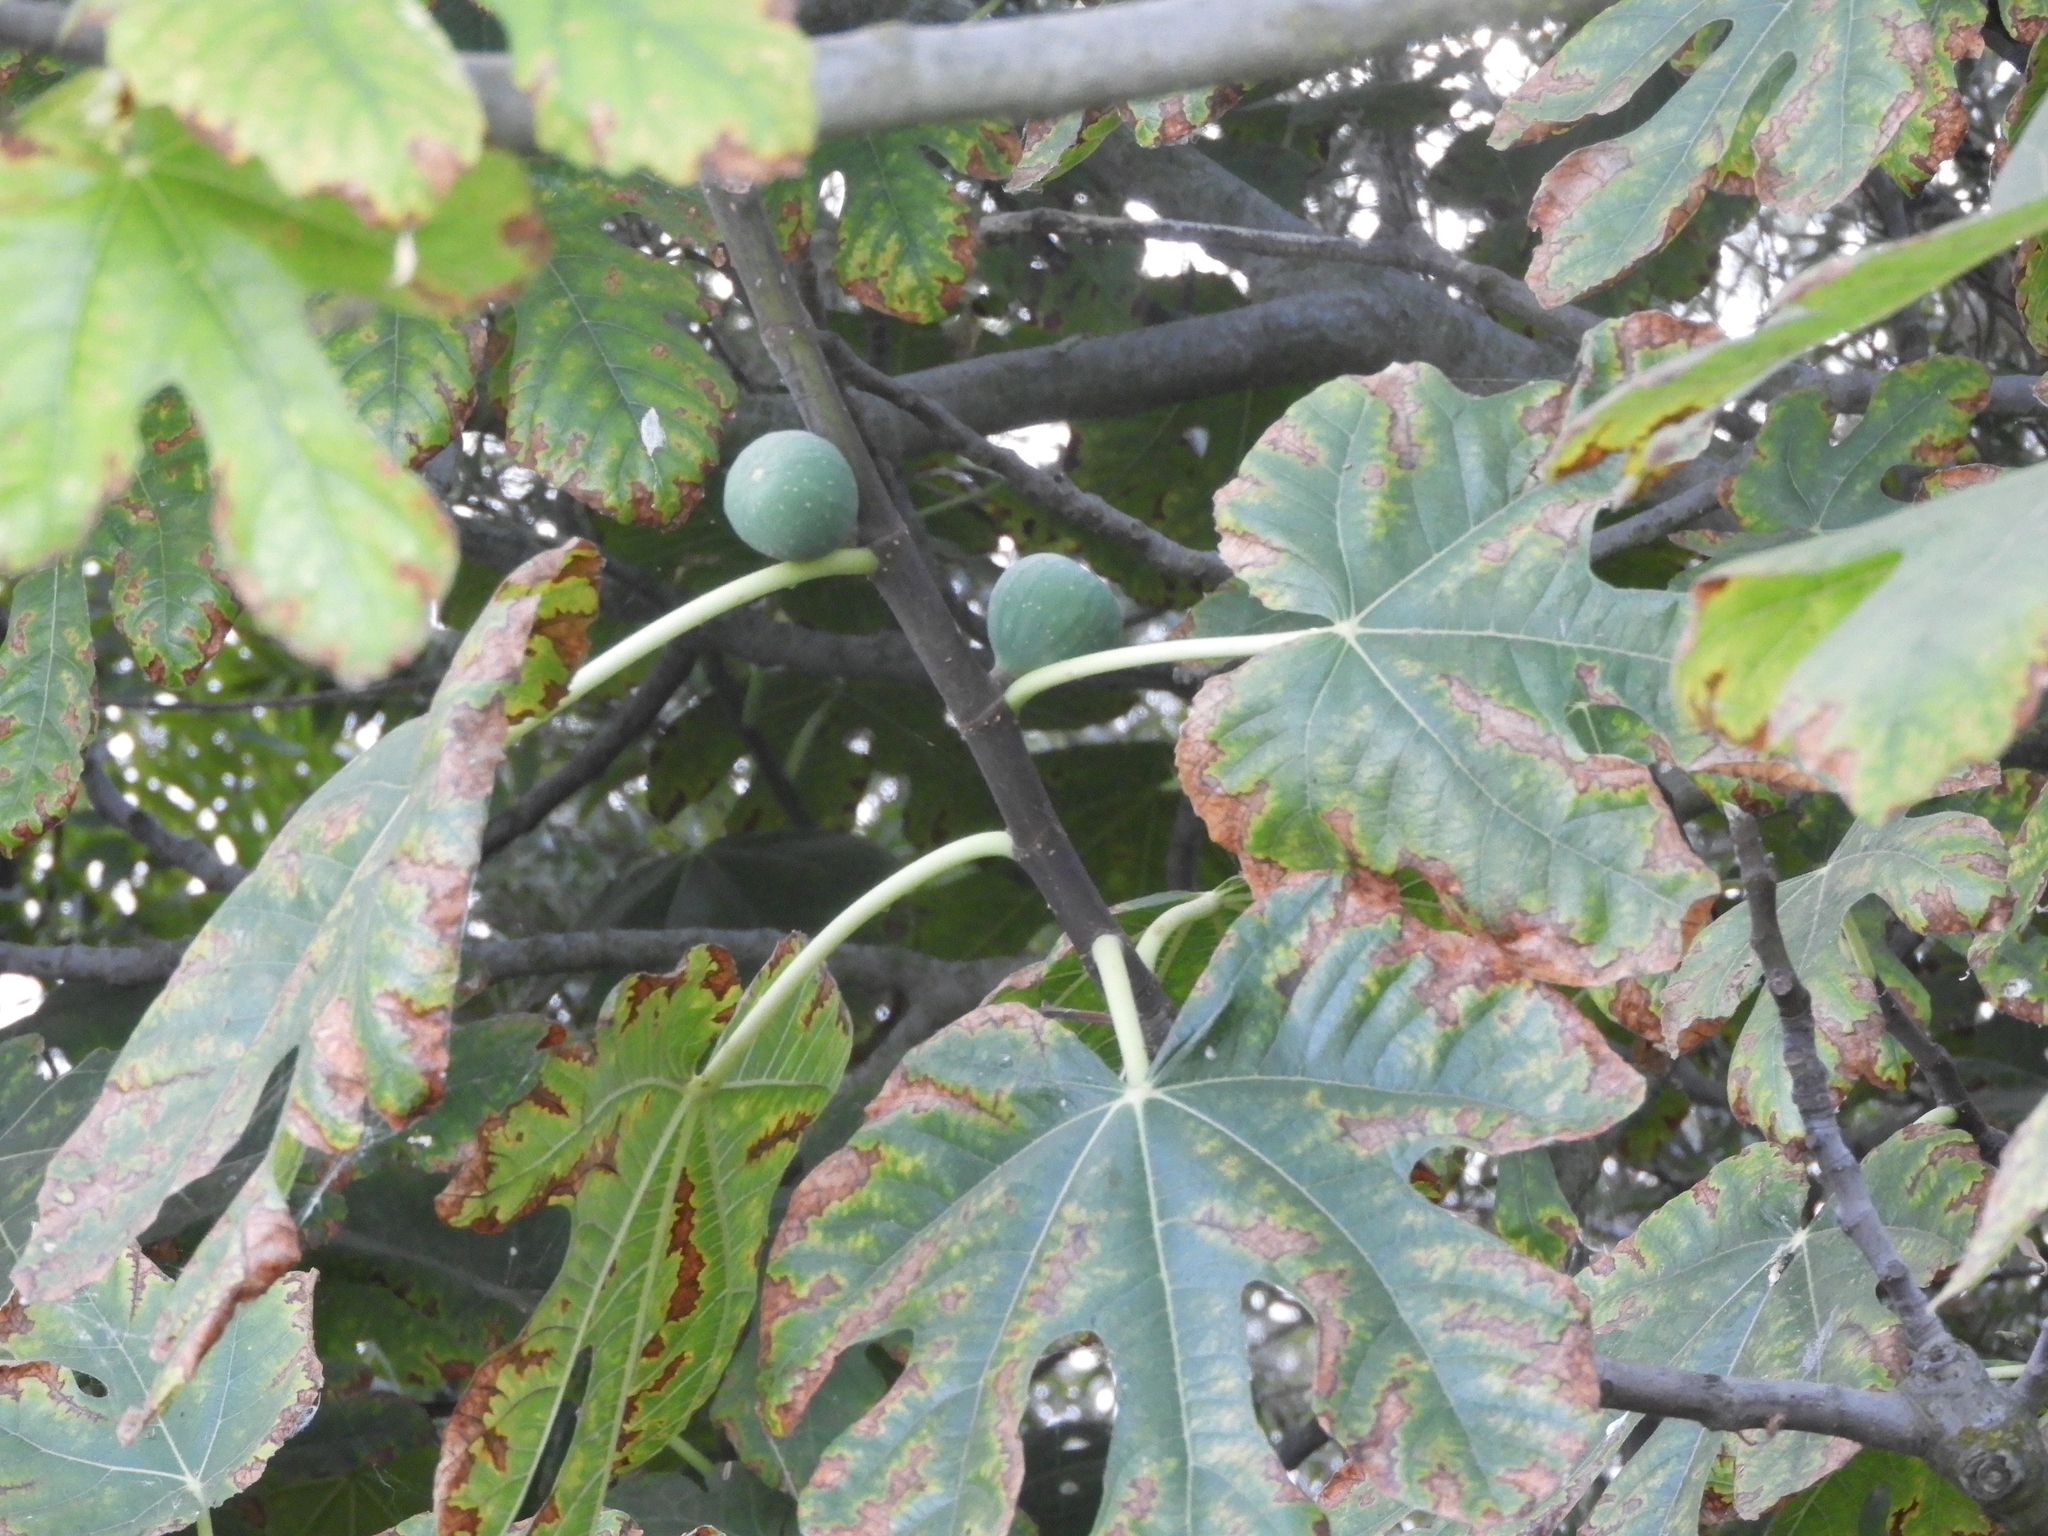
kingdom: Plantae
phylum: Tracheophyta
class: Magnoliopsida
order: Rosales
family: Moraceae
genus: Ficus
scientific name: Ficus carica
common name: Fig
